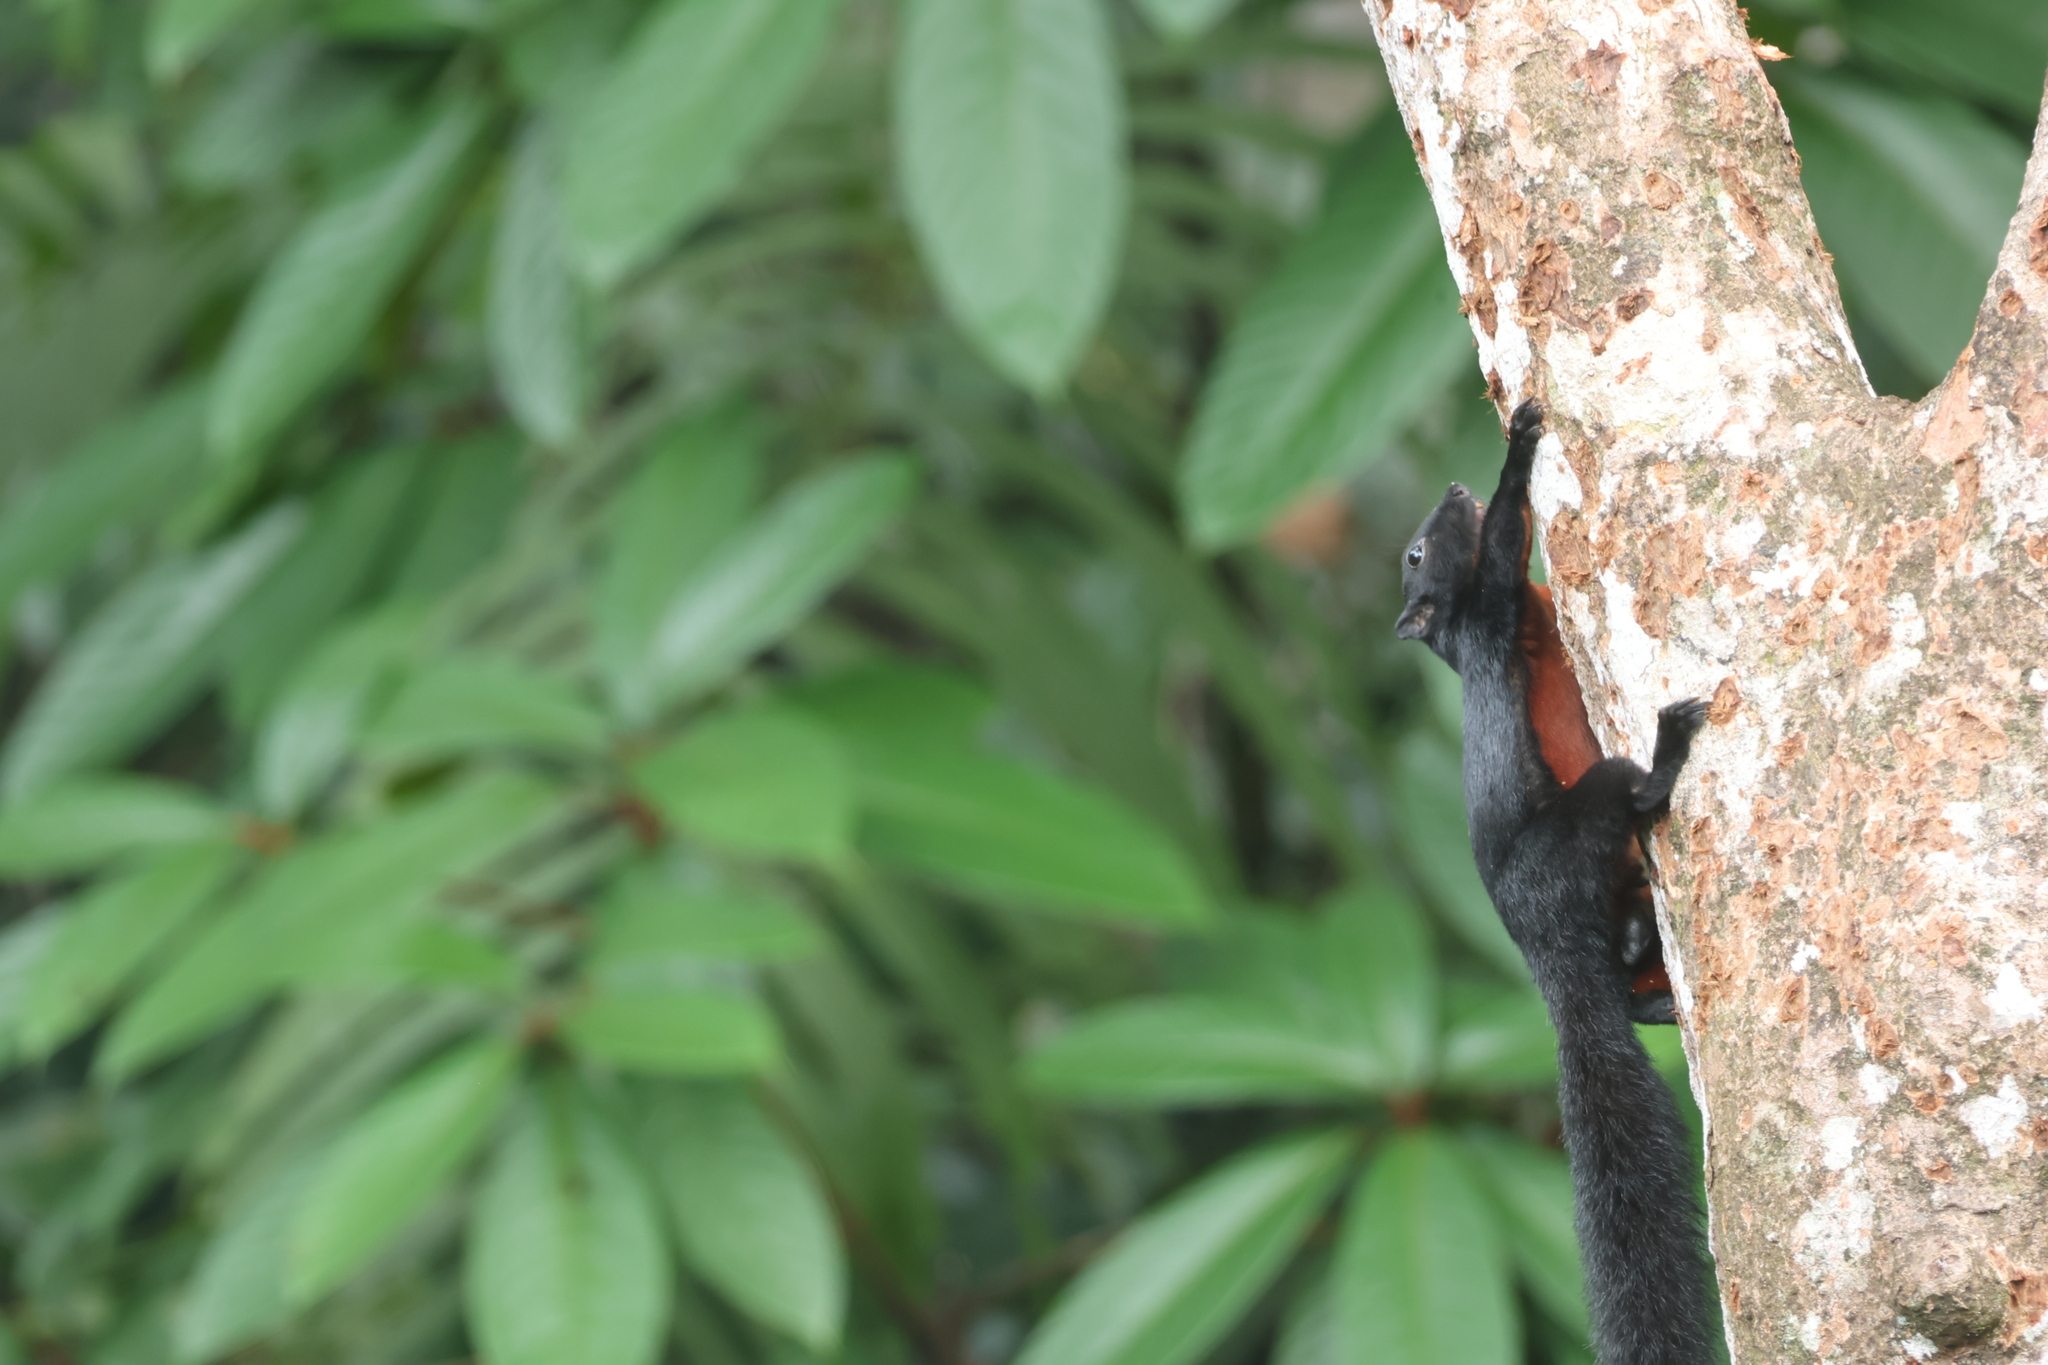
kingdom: Animalia
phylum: Chordata
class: Mammalia
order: Rodentia
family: Sciuridae
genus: Callosciurus
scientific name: Callosciurus prevostii
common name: Prevost's squirrel
